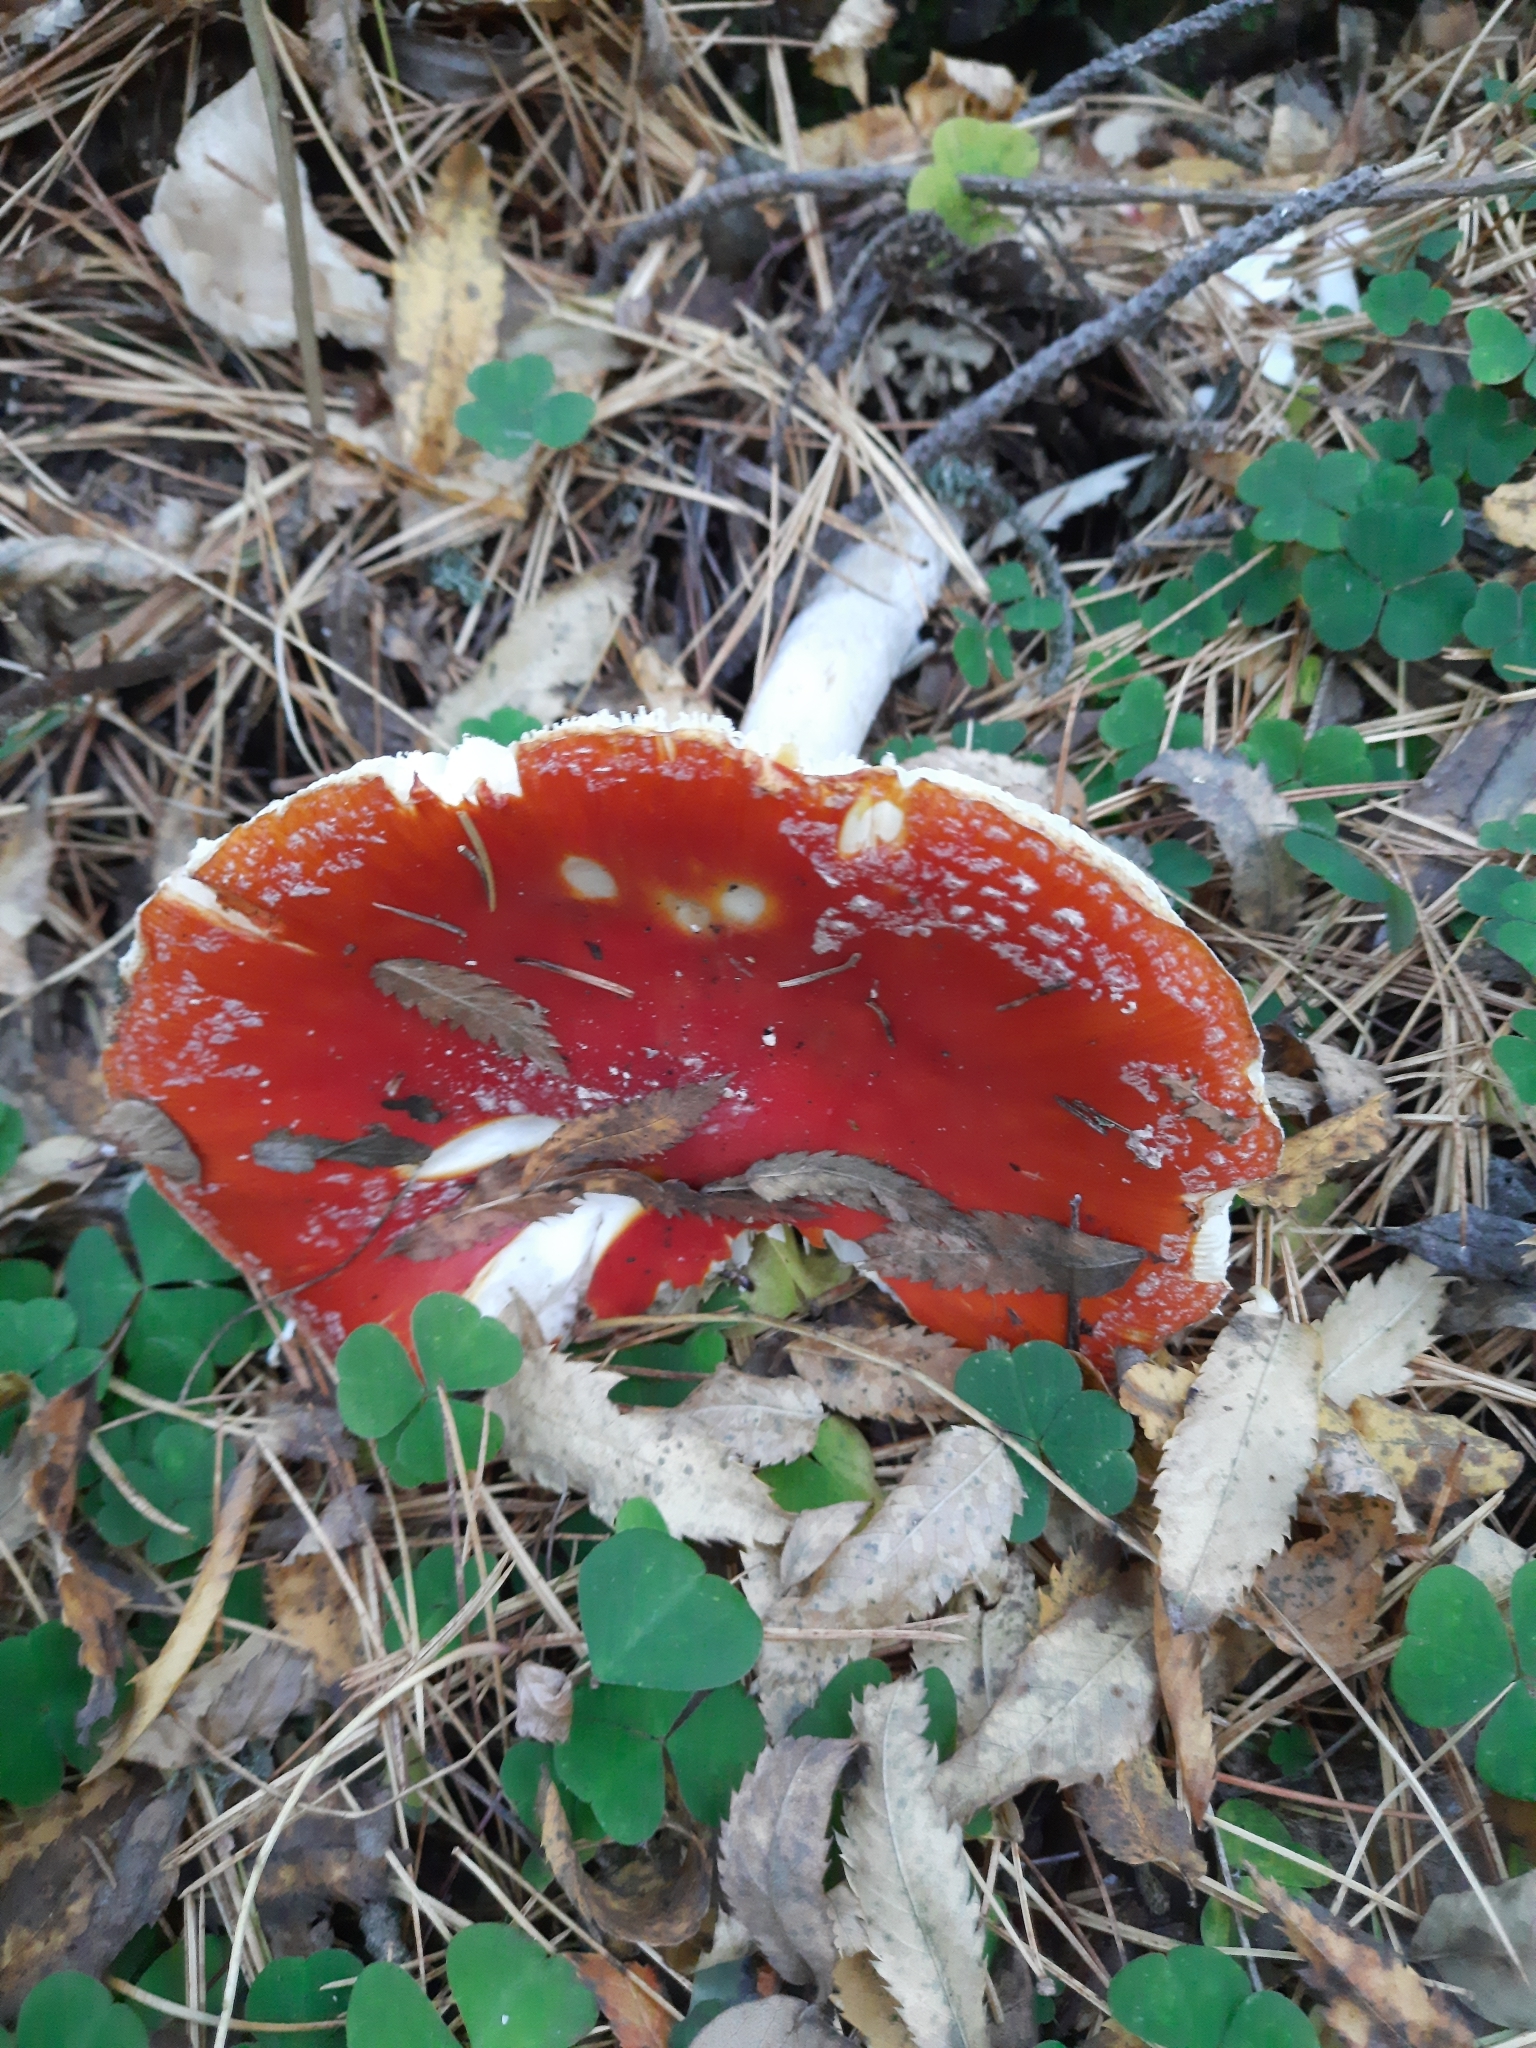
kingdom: Fungi
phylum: Basidiomycota
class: Agaricomycetes
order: Agaricales
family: Amanitaceae
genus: Amanita
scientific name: Amanita muscaria
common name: Fly agaric
